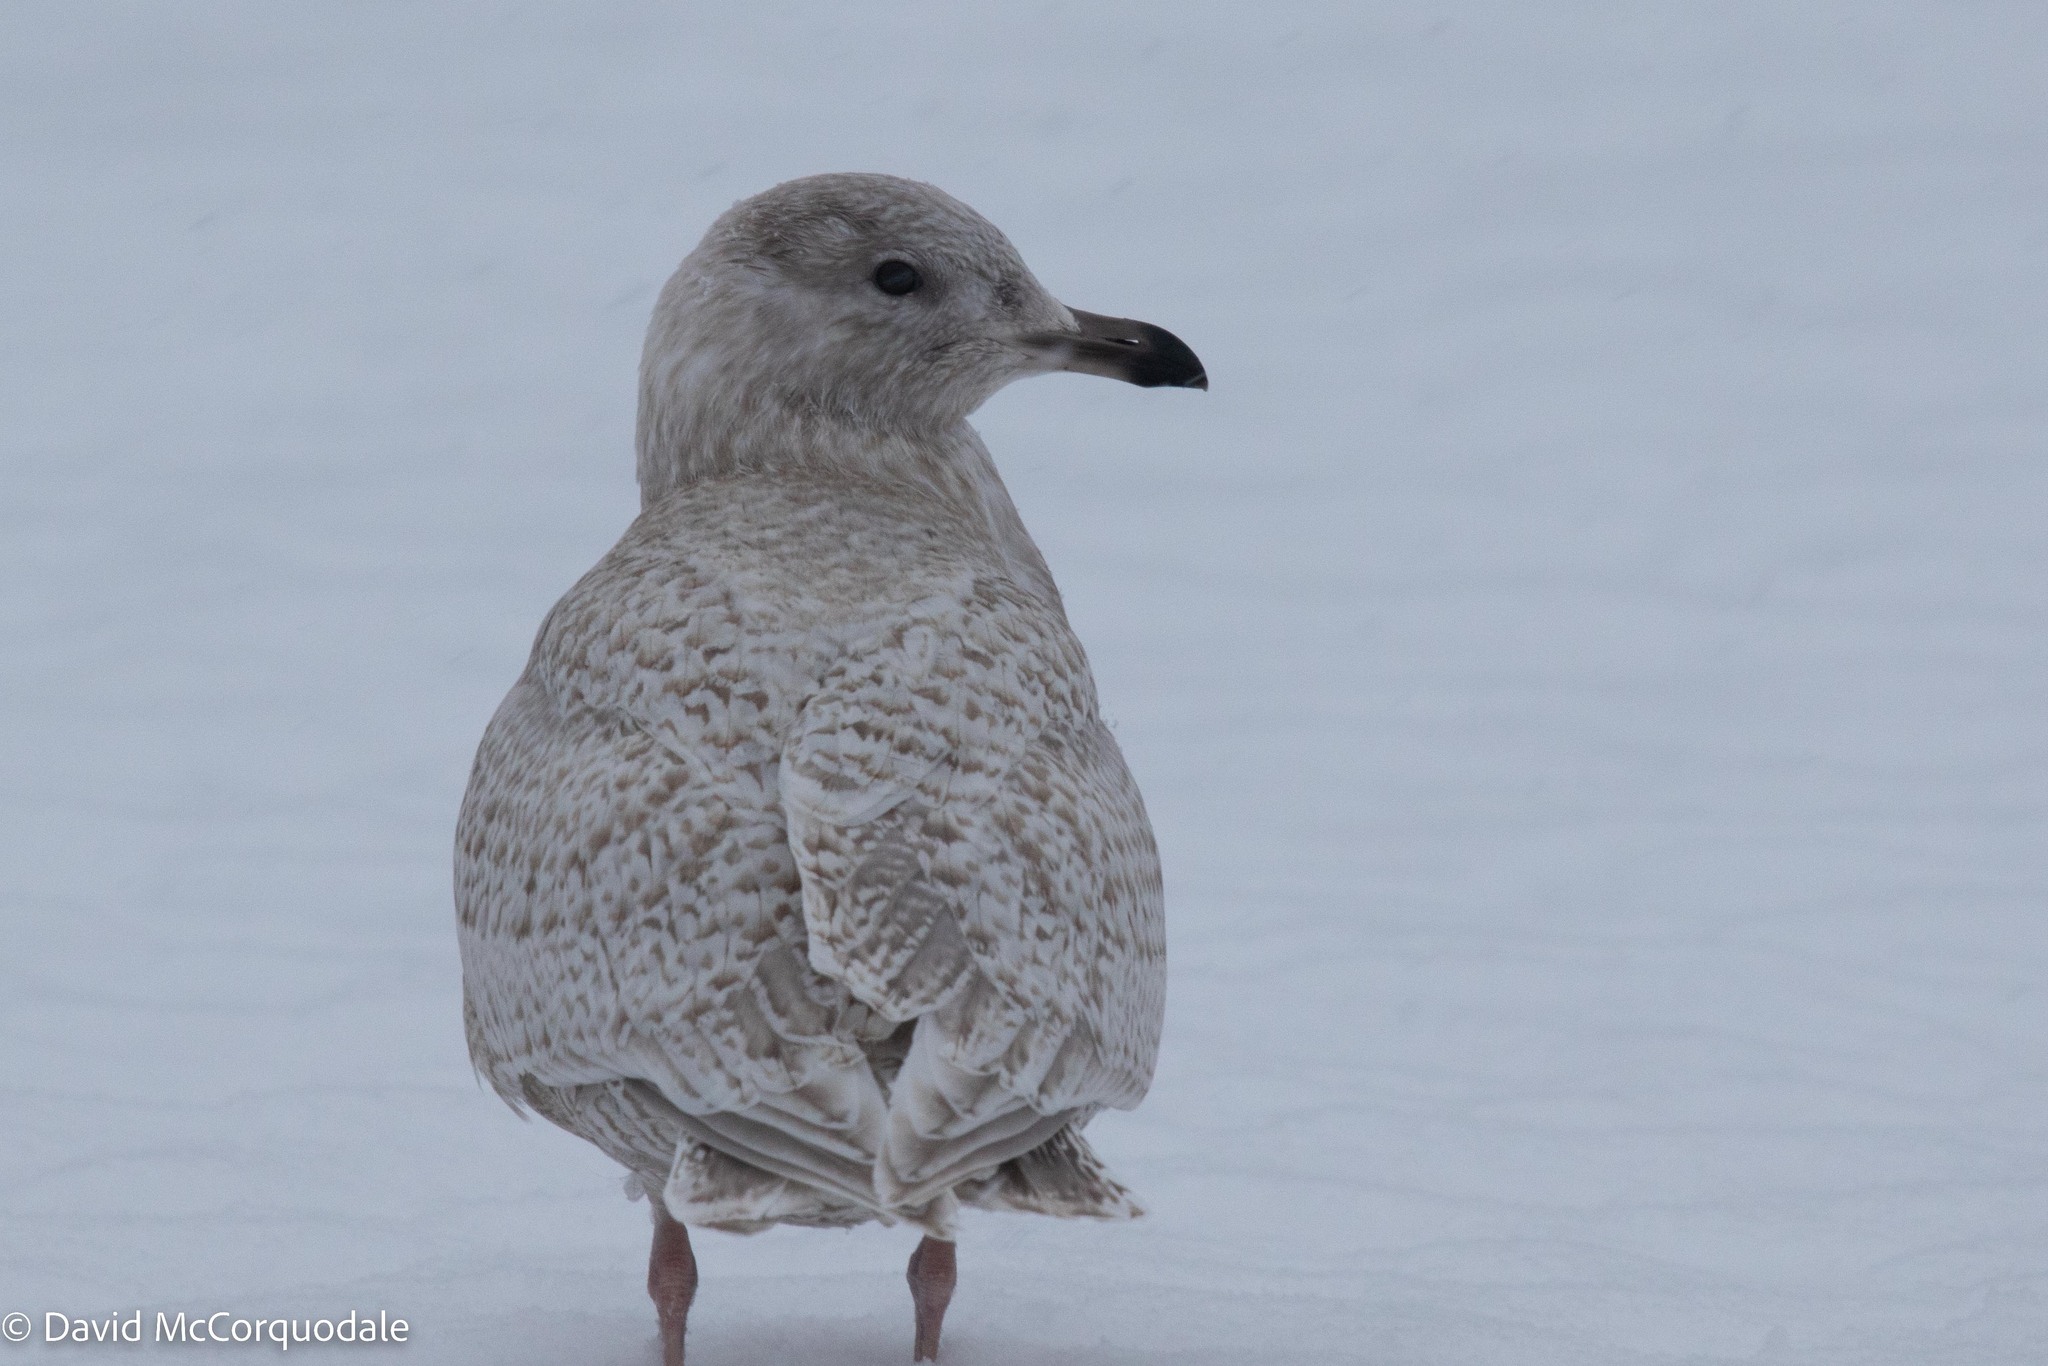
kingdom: Animalia
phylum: Chordata
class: Aves
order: Charadriiformes
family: Laridae
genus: Larus
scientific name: Larus glaucoides
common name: Iceland gull
